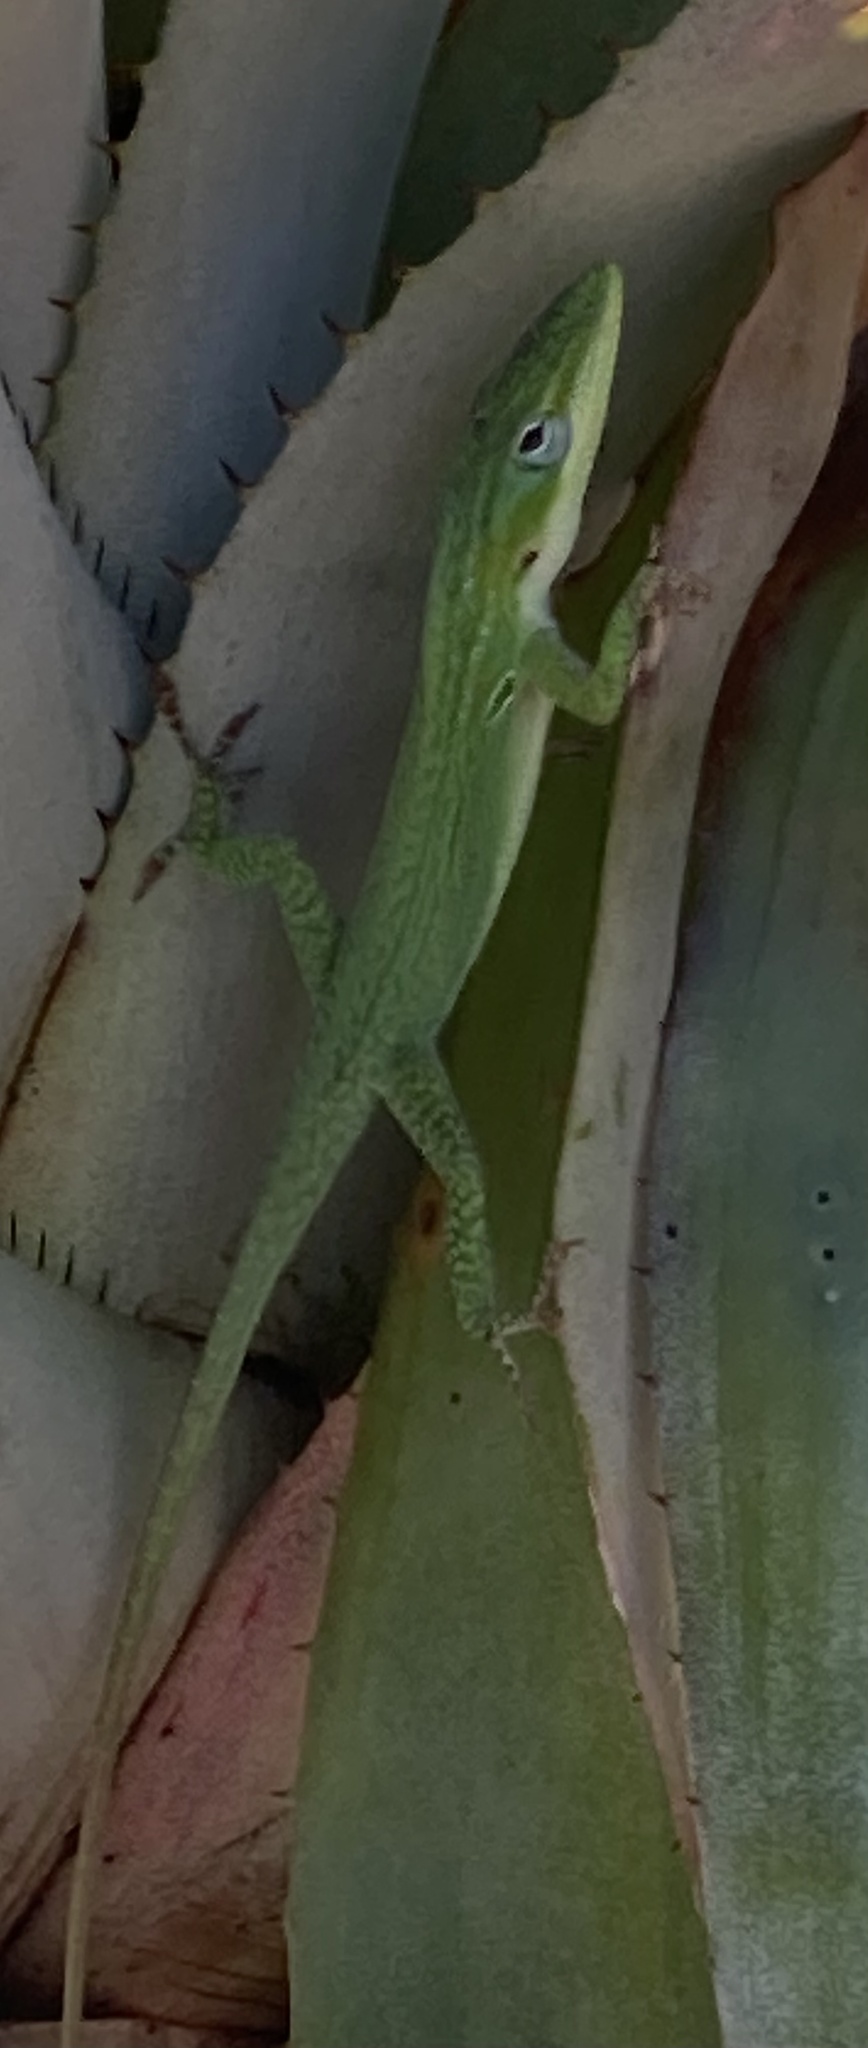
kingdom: Animalia
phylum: Chordata
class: Squamata
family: Dactyloidae
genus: Anolis
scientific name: Anolis carolinensis
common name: Green anole
